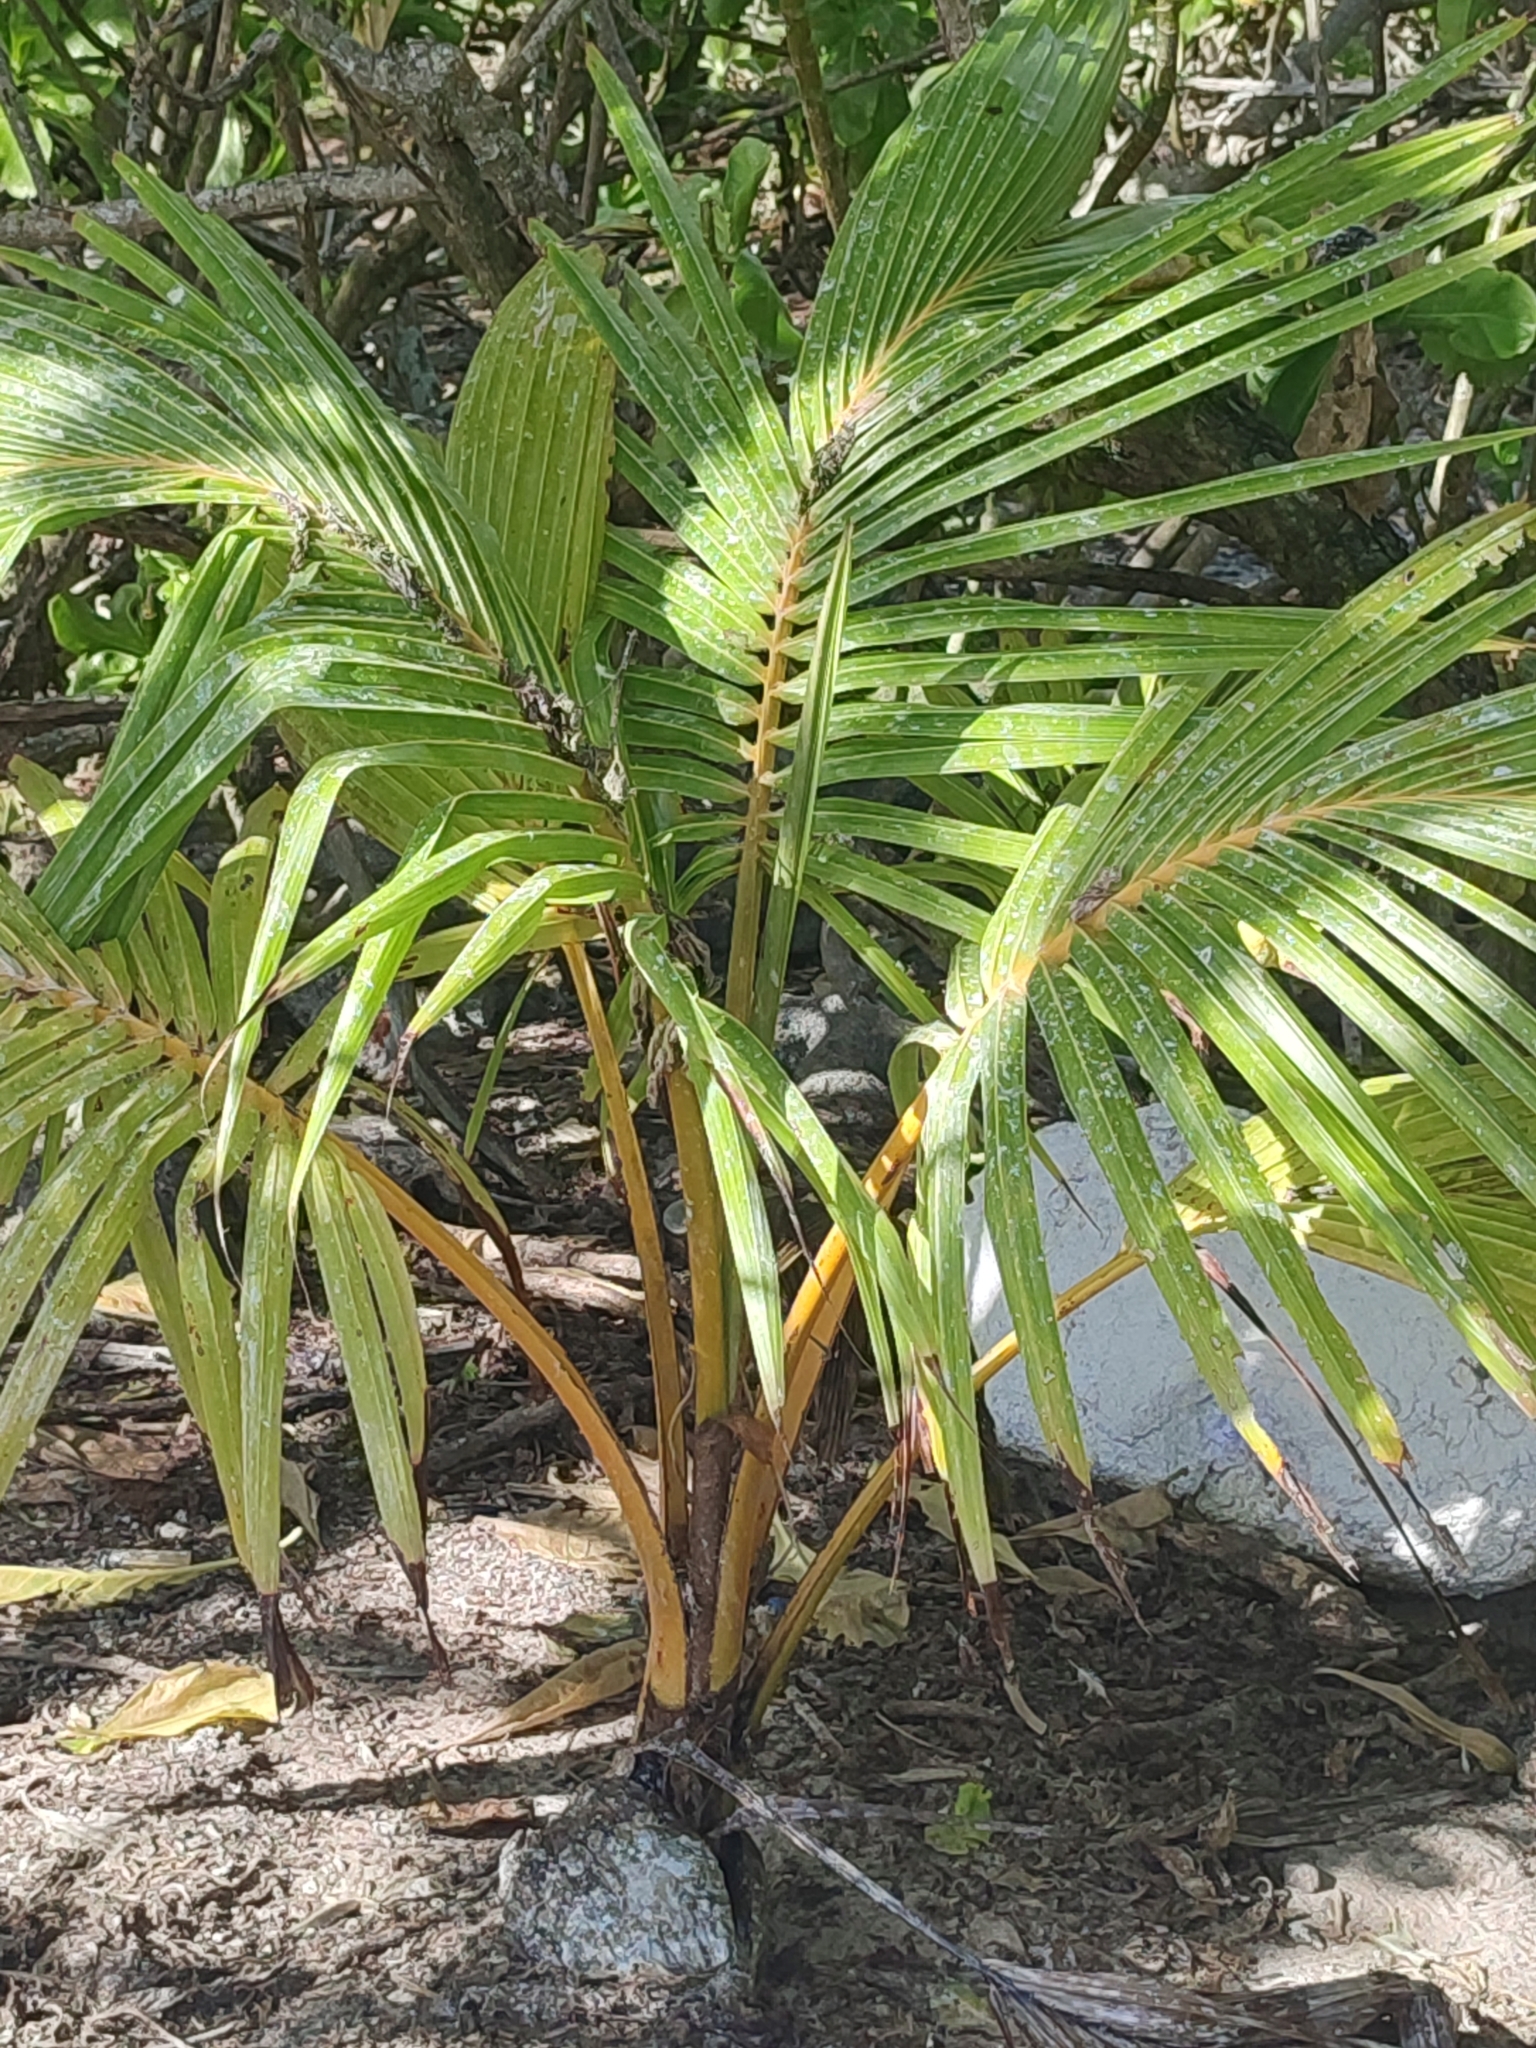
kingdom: Plantae
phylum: Tracheophyta
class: Liliopsida
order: Arecales
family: Arecaceae
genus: Cocos
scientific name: Cocos nucifera
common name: Coconut palm
